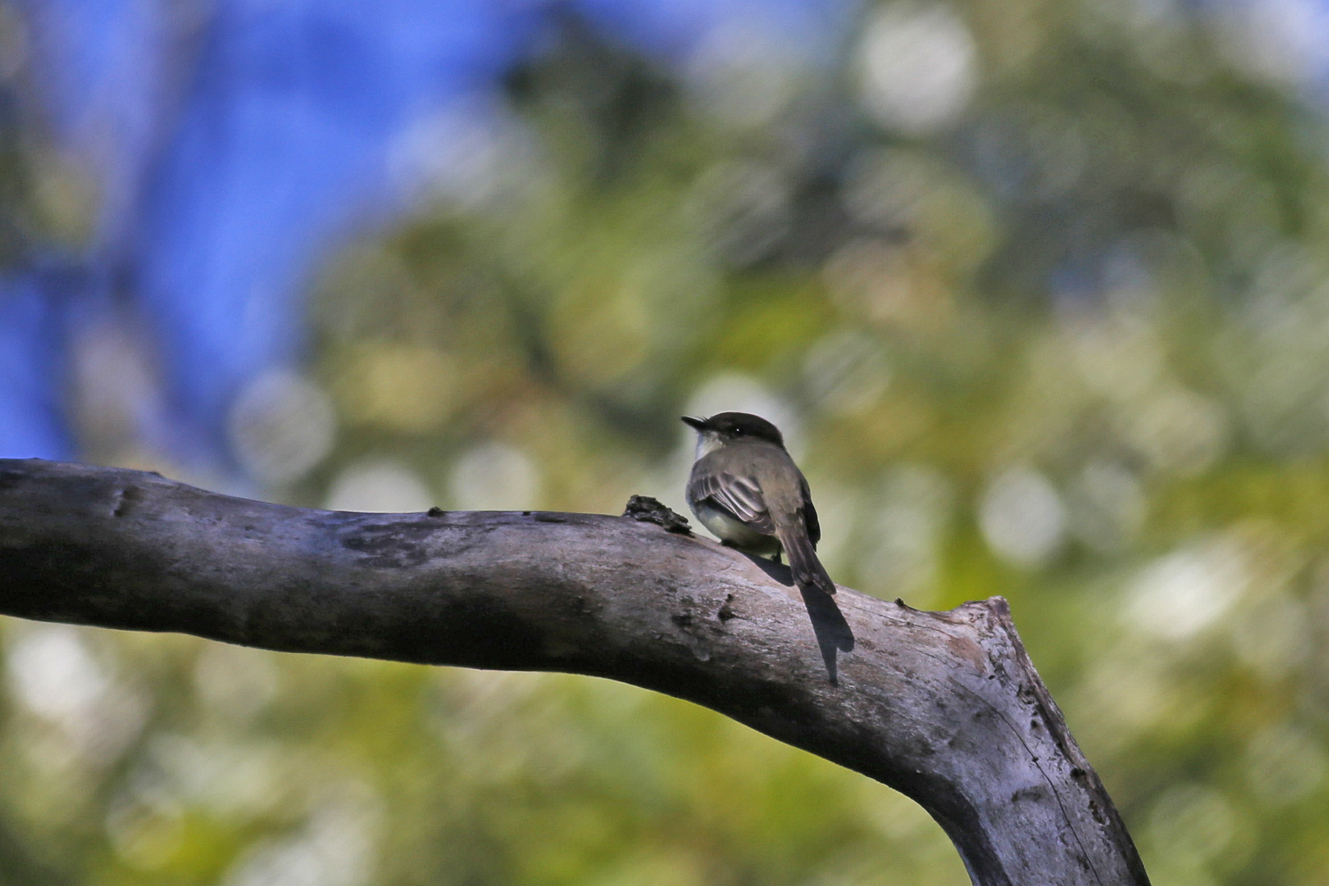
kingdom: Animalia
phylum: Chordata
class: Aves
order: Passeriformes
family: Tyrannidae
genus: Sayornis
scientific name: Sayornis phoebe
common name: Eastern phoebe
